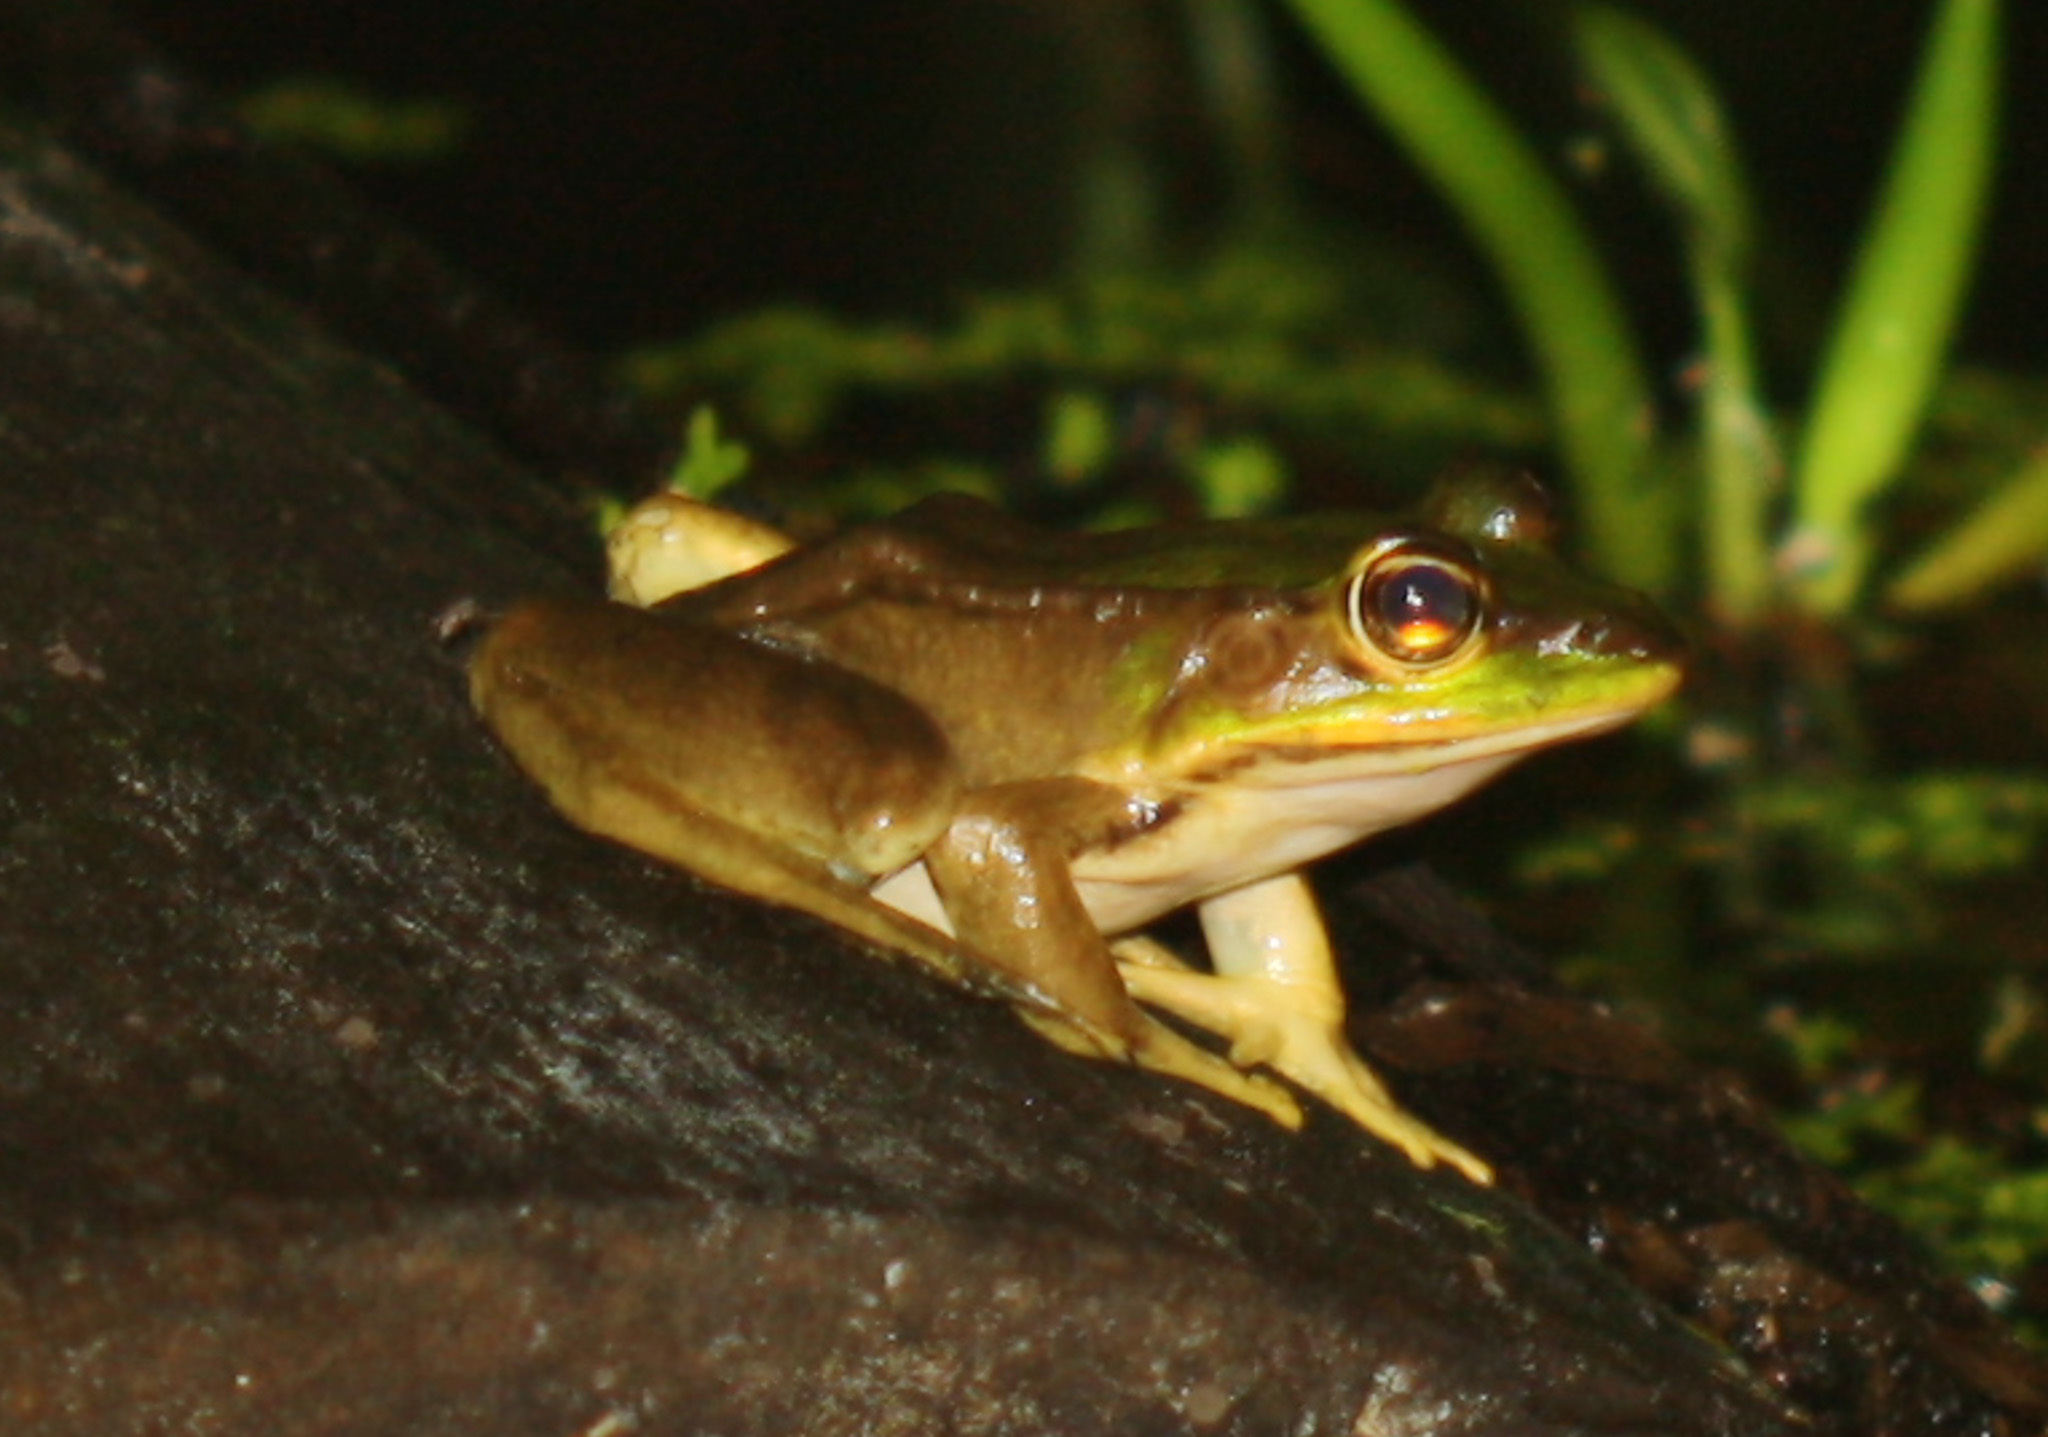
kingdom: Animalia
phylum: Chordata
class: Amphibia
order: Anura
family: Ranidae
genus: Lithobates
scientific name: Lithobates vaillanti
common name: Vaillant's frog
